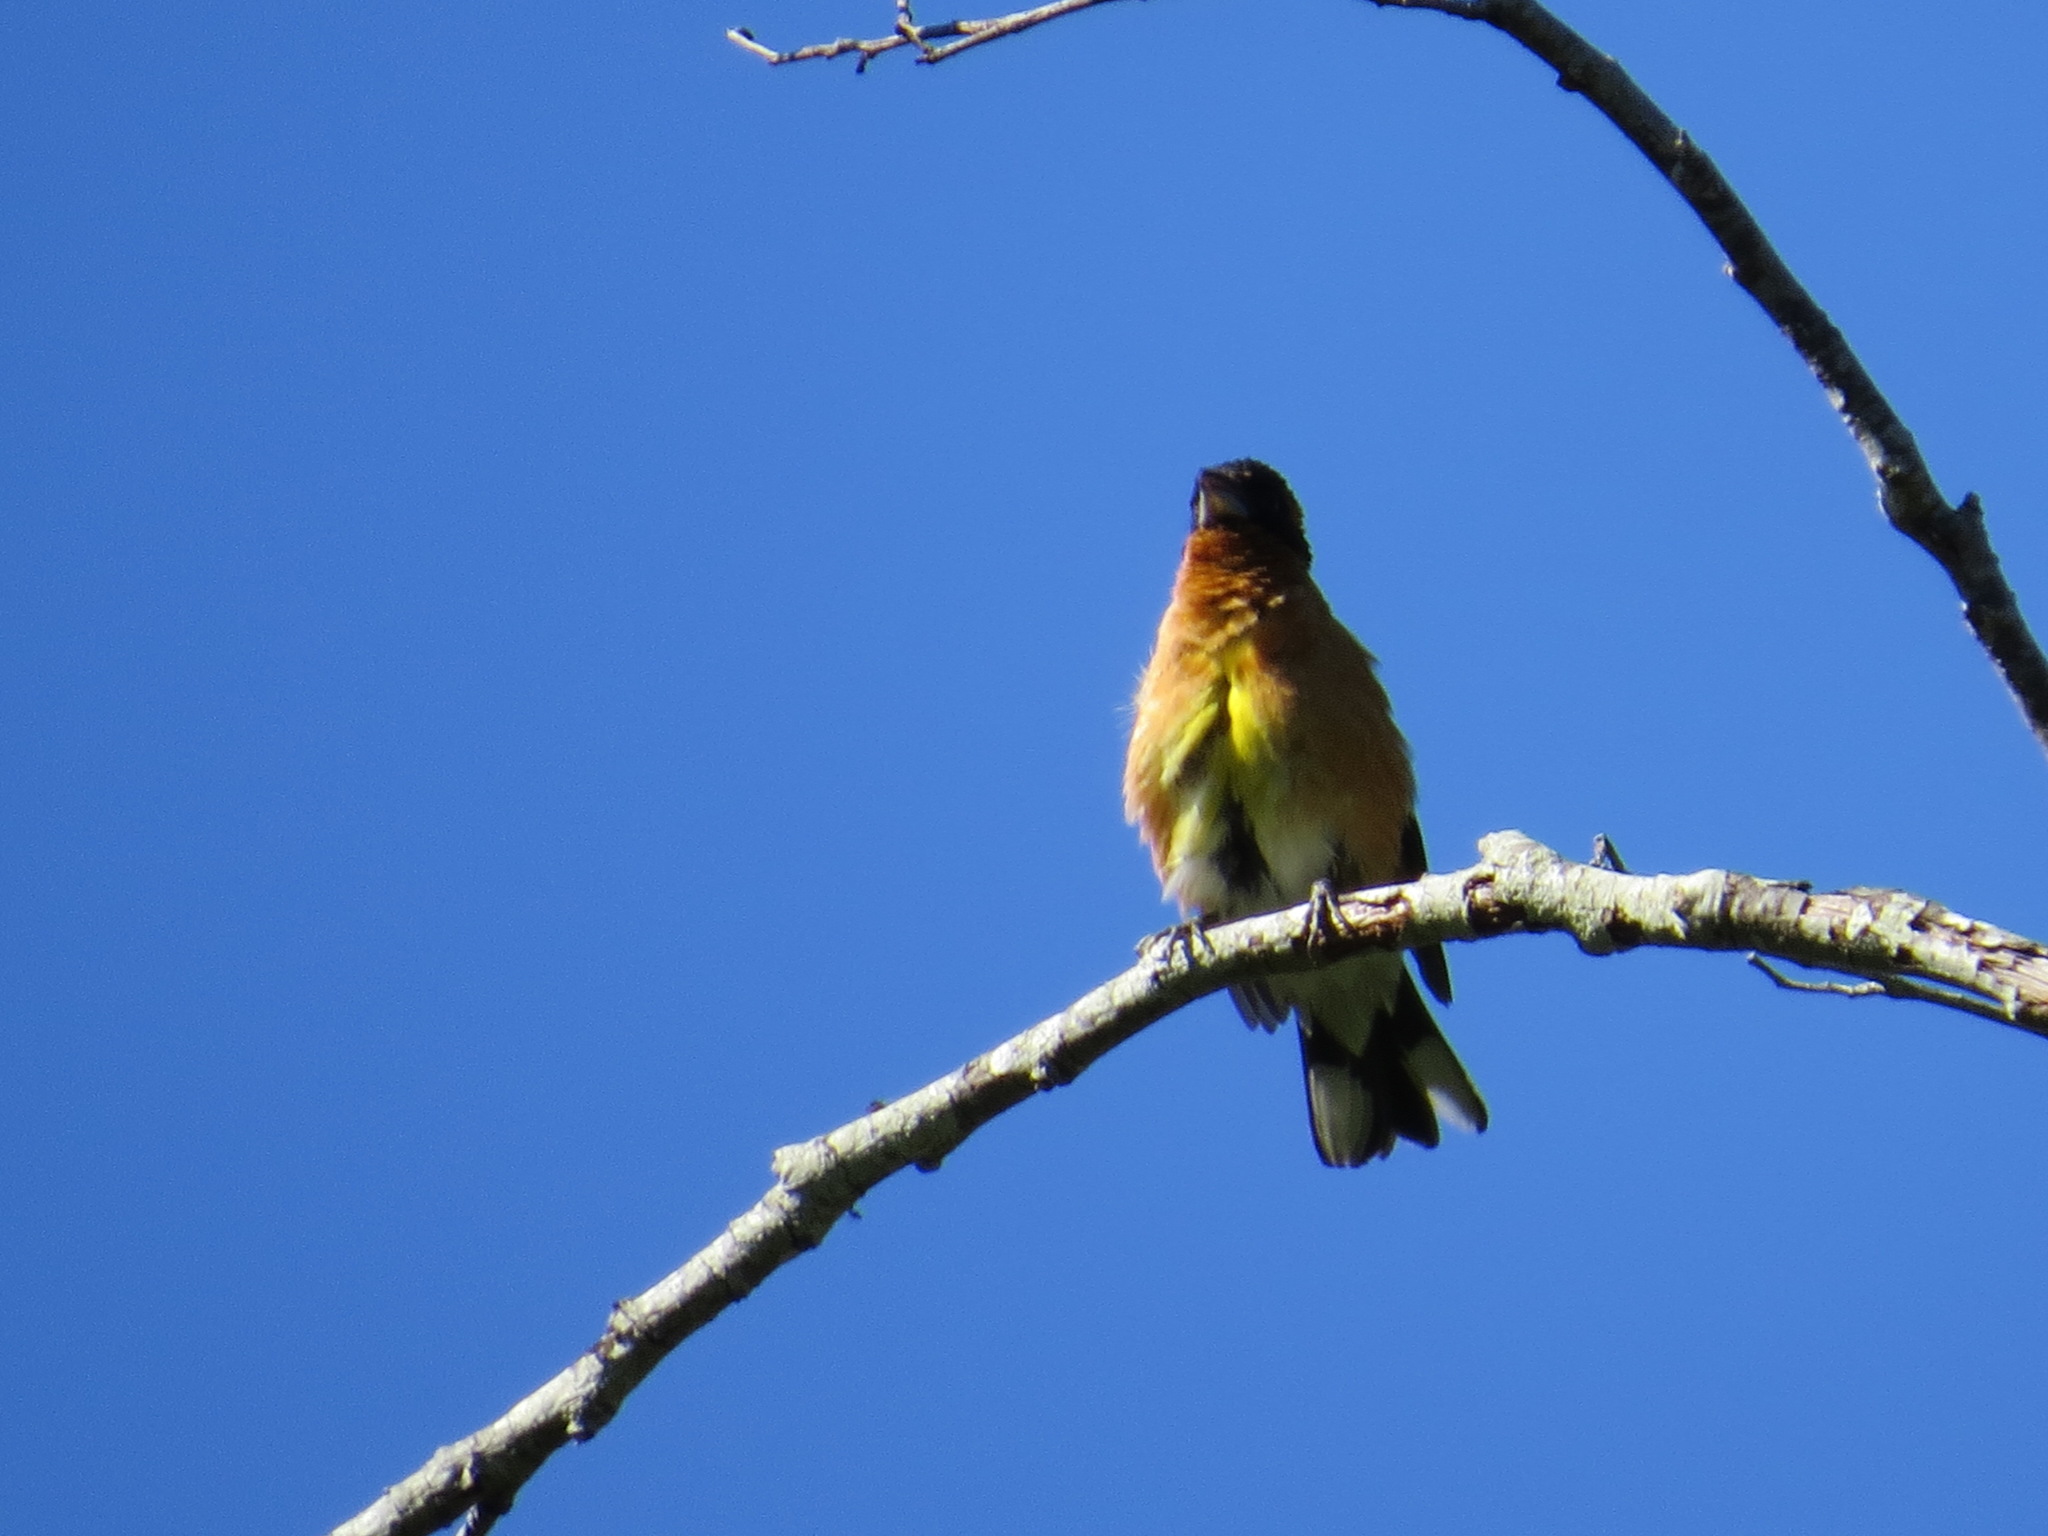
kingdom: Animalia
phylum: Chordata
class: Aves
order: Passeriformes
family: Cardinalidae
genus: Pheucticus
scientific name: Pheucticus melanocephalus
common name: Black-headed grosbeak
